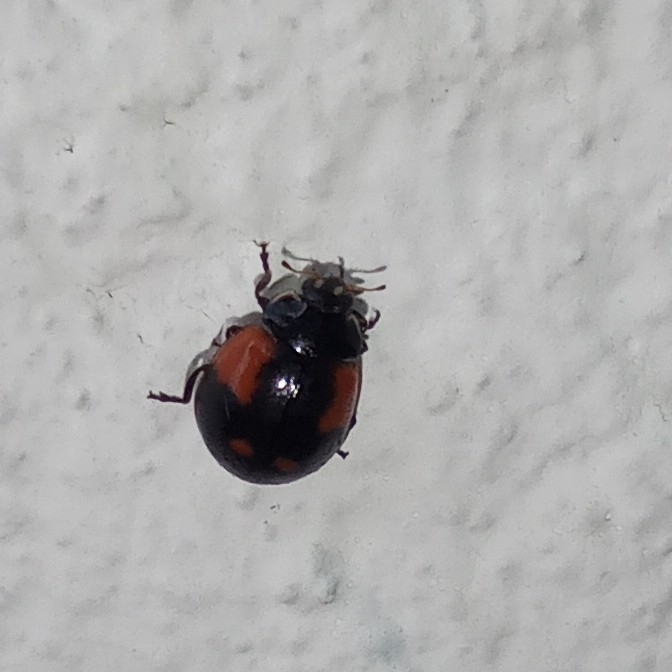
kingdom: Animalia
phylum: Arthropoda
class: Insecta
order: Coleoptera
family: Coccinellidae
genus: Adalia
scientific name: Adalia bipunctata
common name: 2-spot ladybird
